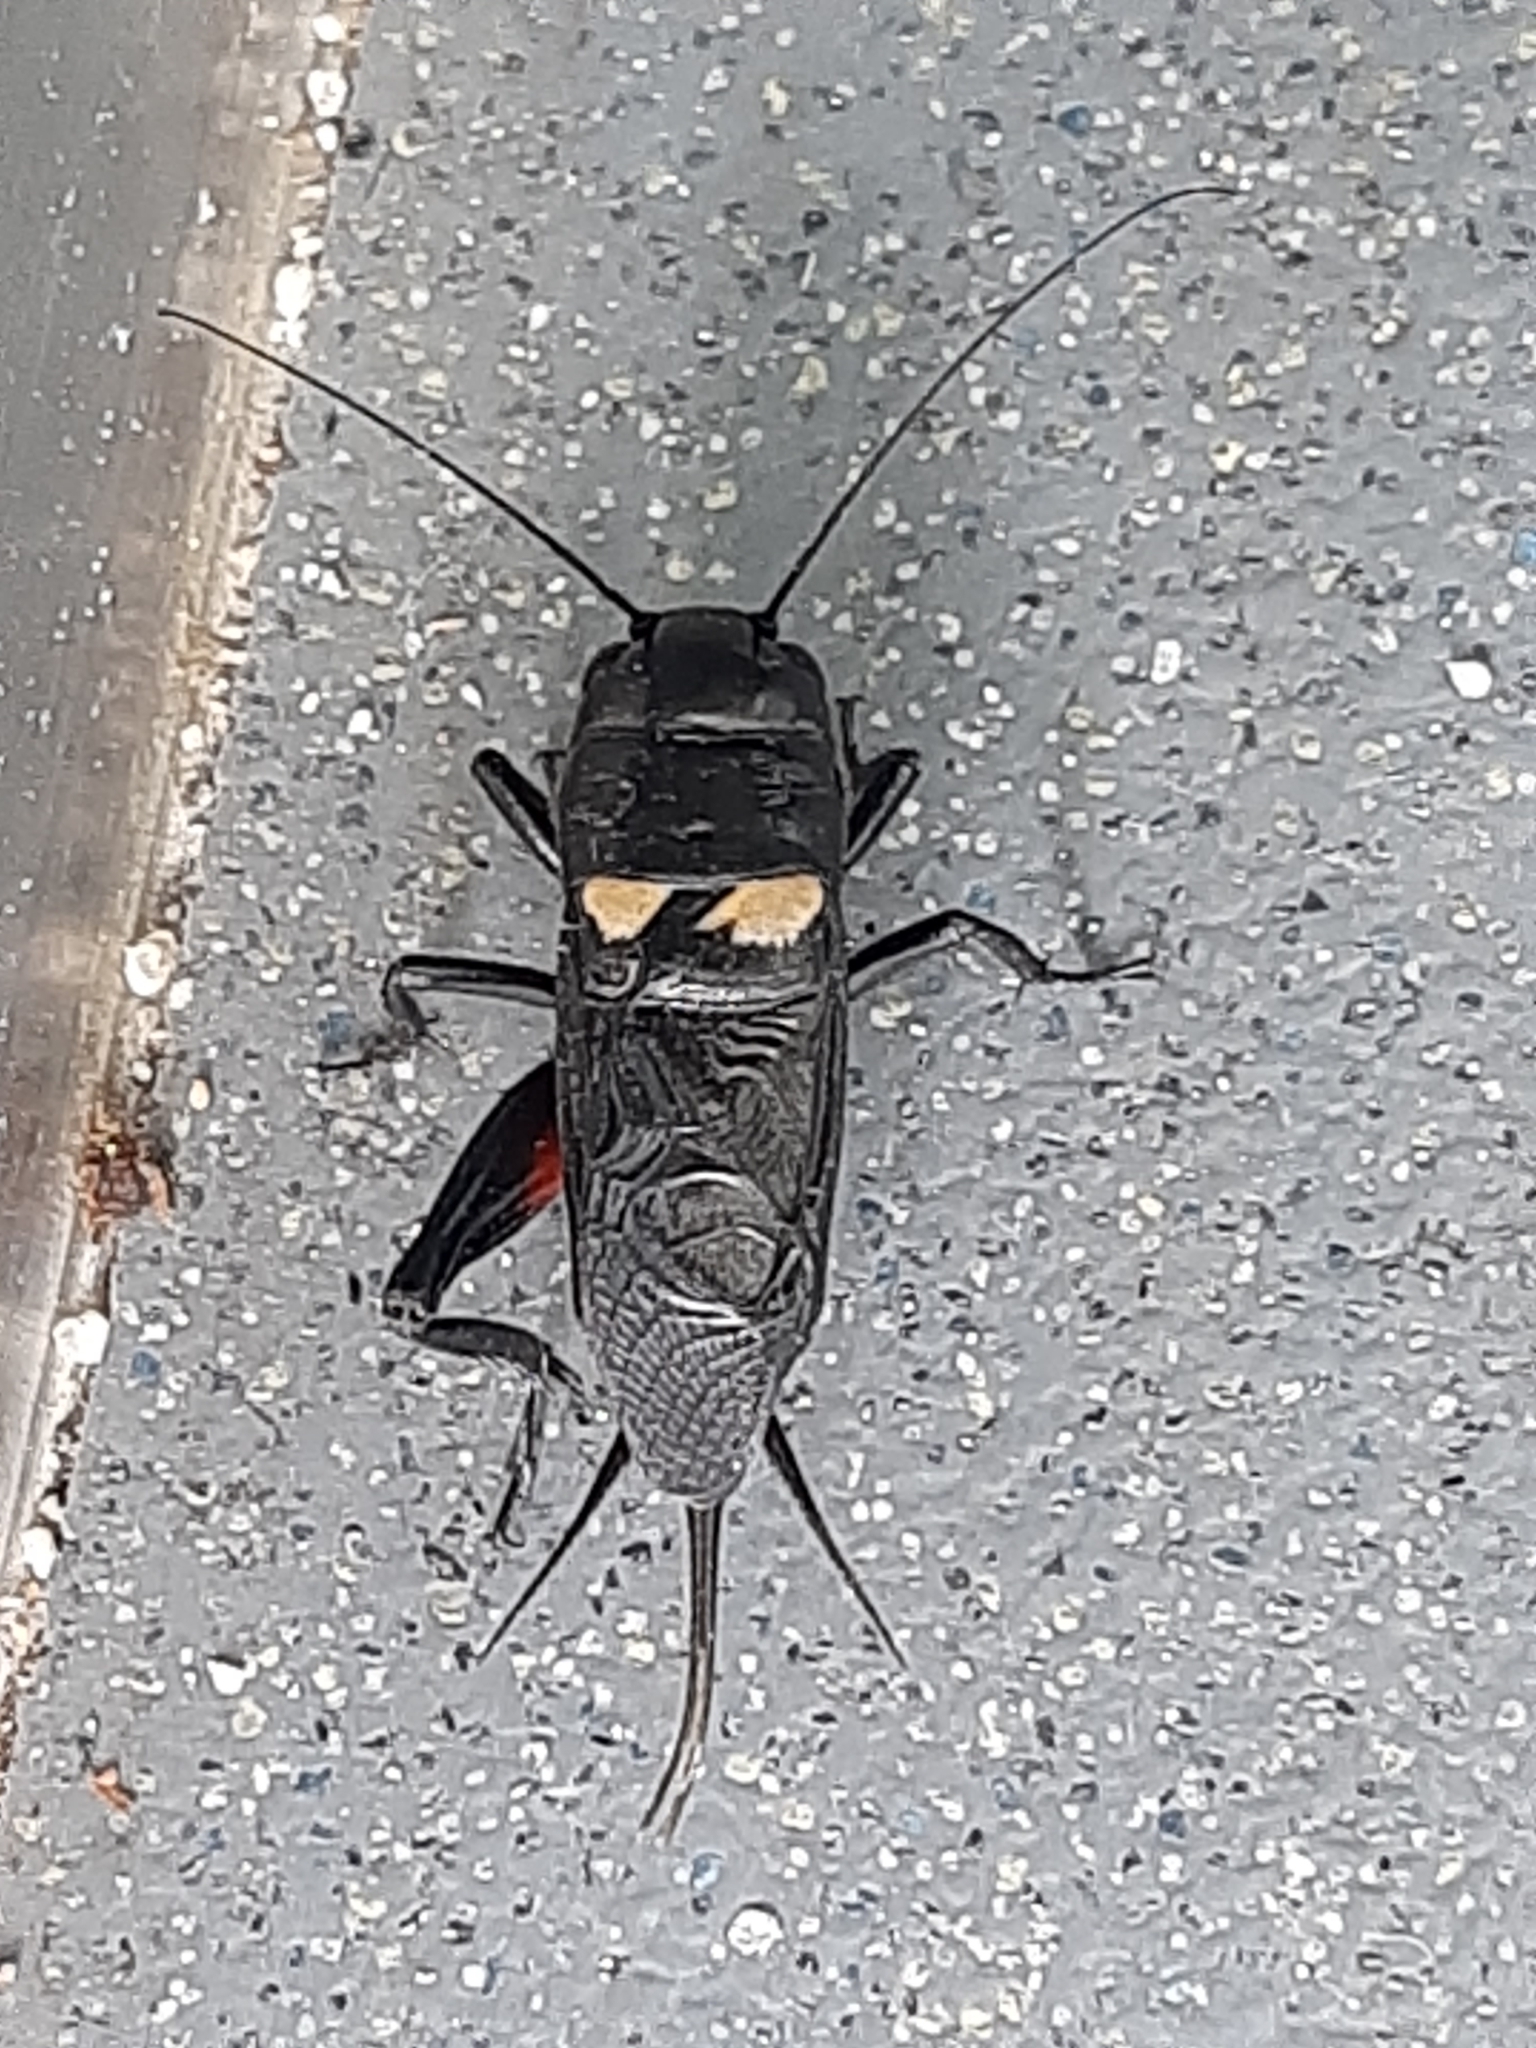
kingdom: Animalia
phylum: Arthropoda
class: Insecta
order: Orthoptera
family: Gryllidae
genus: Gryllus
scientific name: Gryllus bimaculatus
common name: Two-spotted cricket
